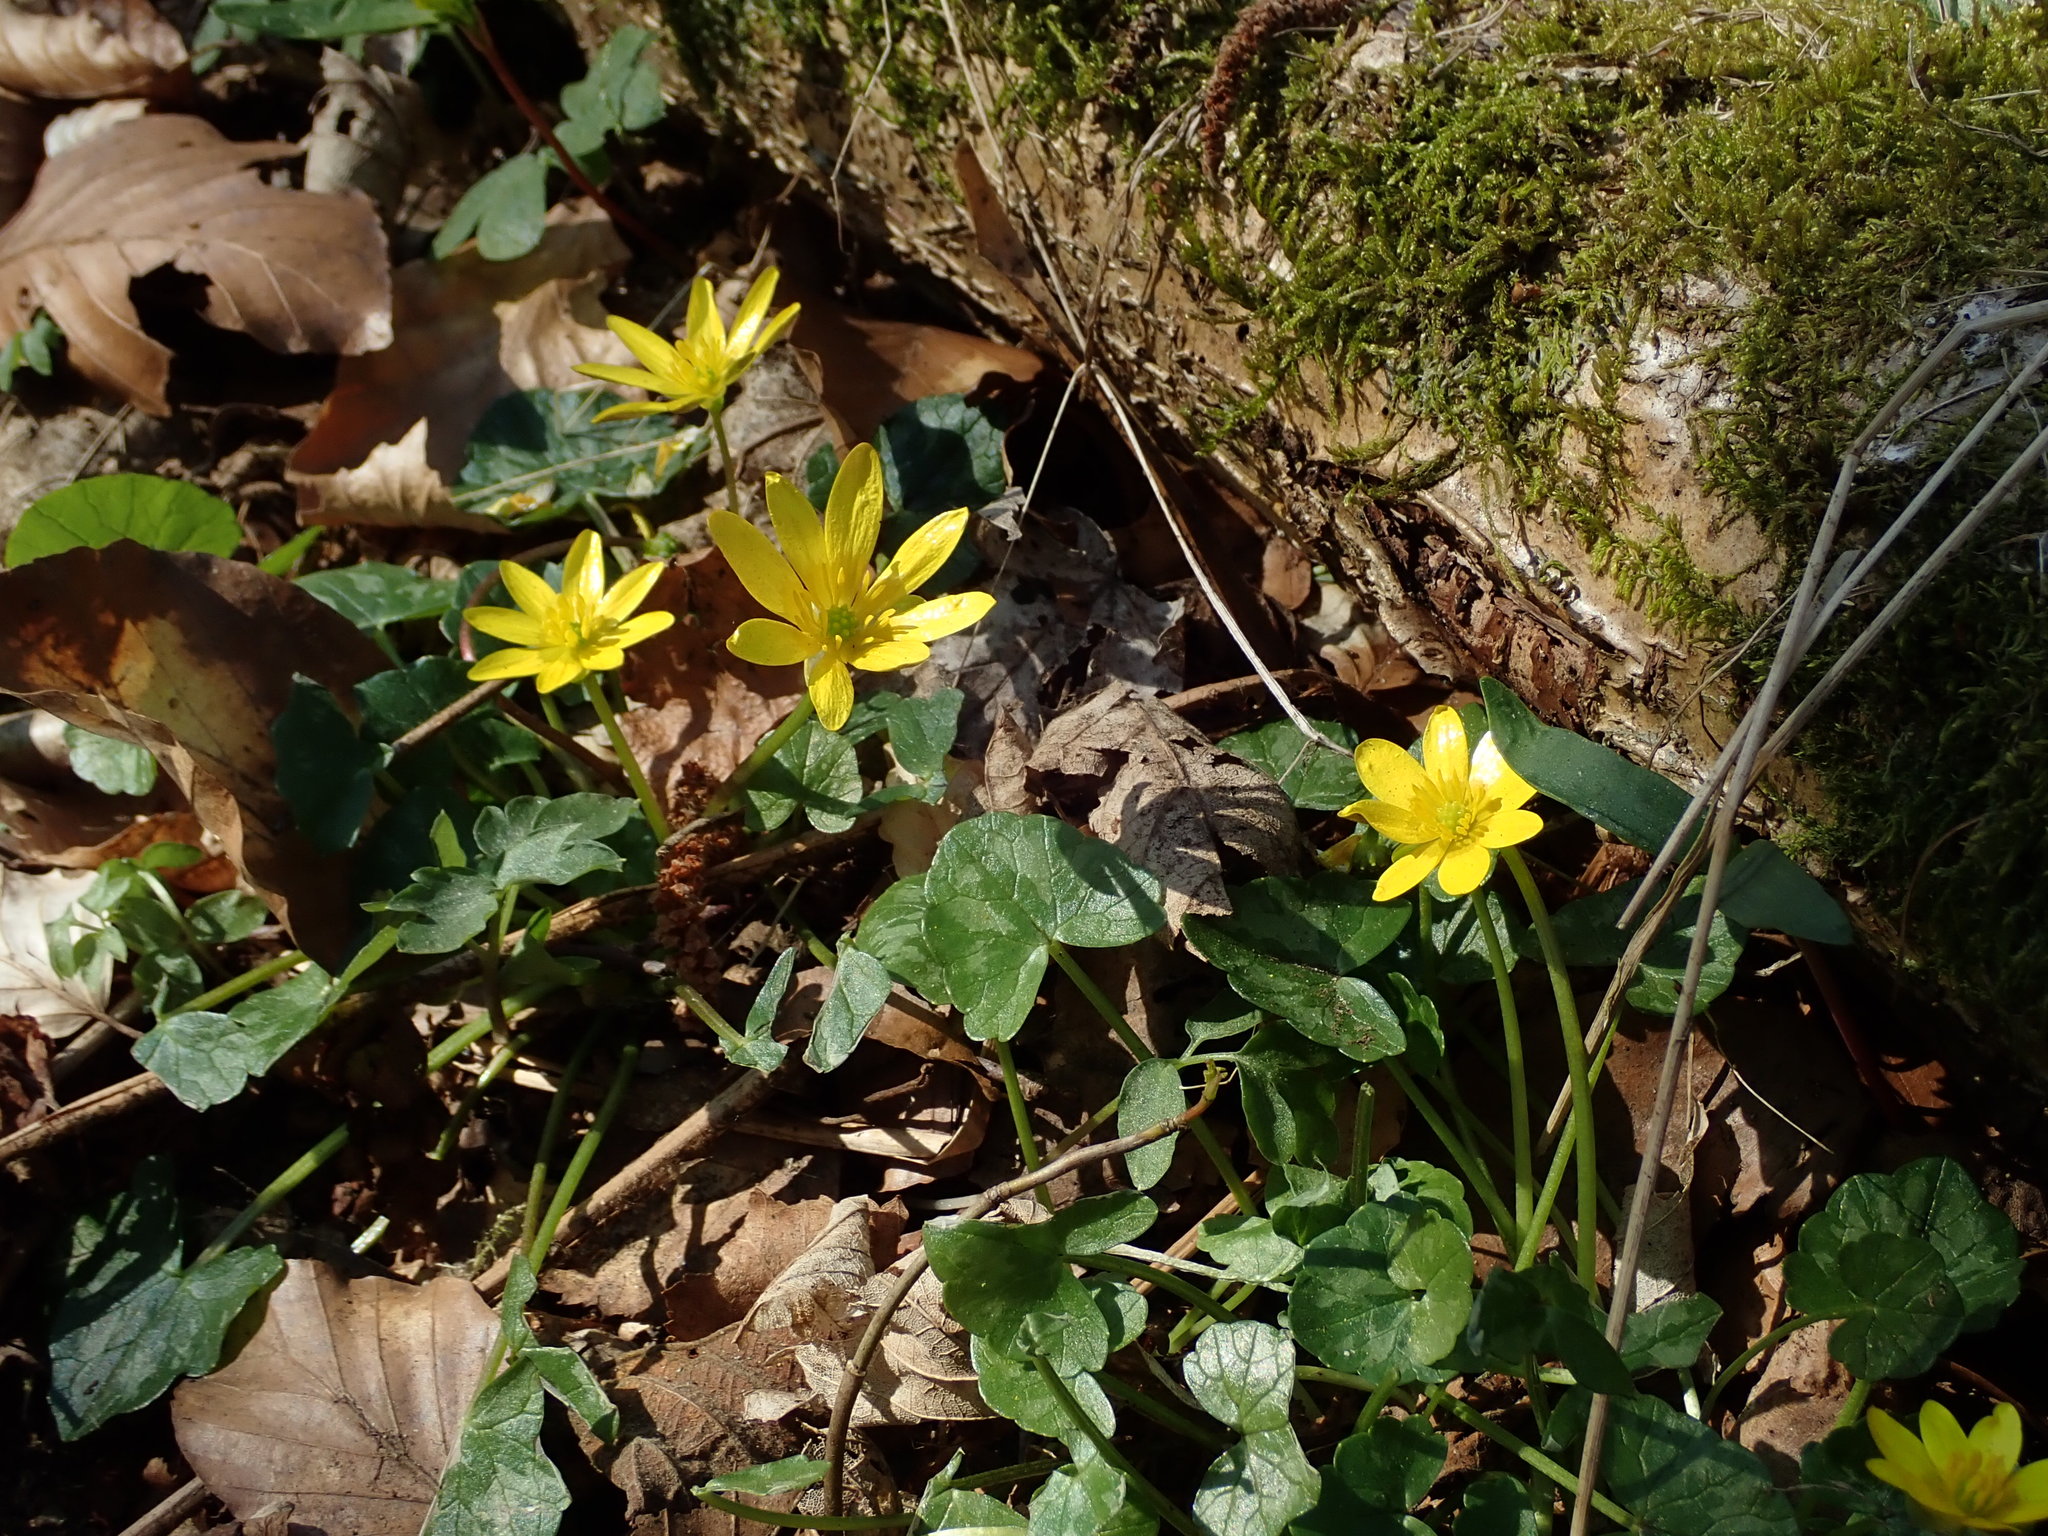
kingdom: Plantae
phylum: Tracheophyta
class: Magnoliopsida
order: Ranunculales
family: Ranunculaceae
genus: Ficaria
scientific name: Ficaria verna
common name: Lesser celandine
